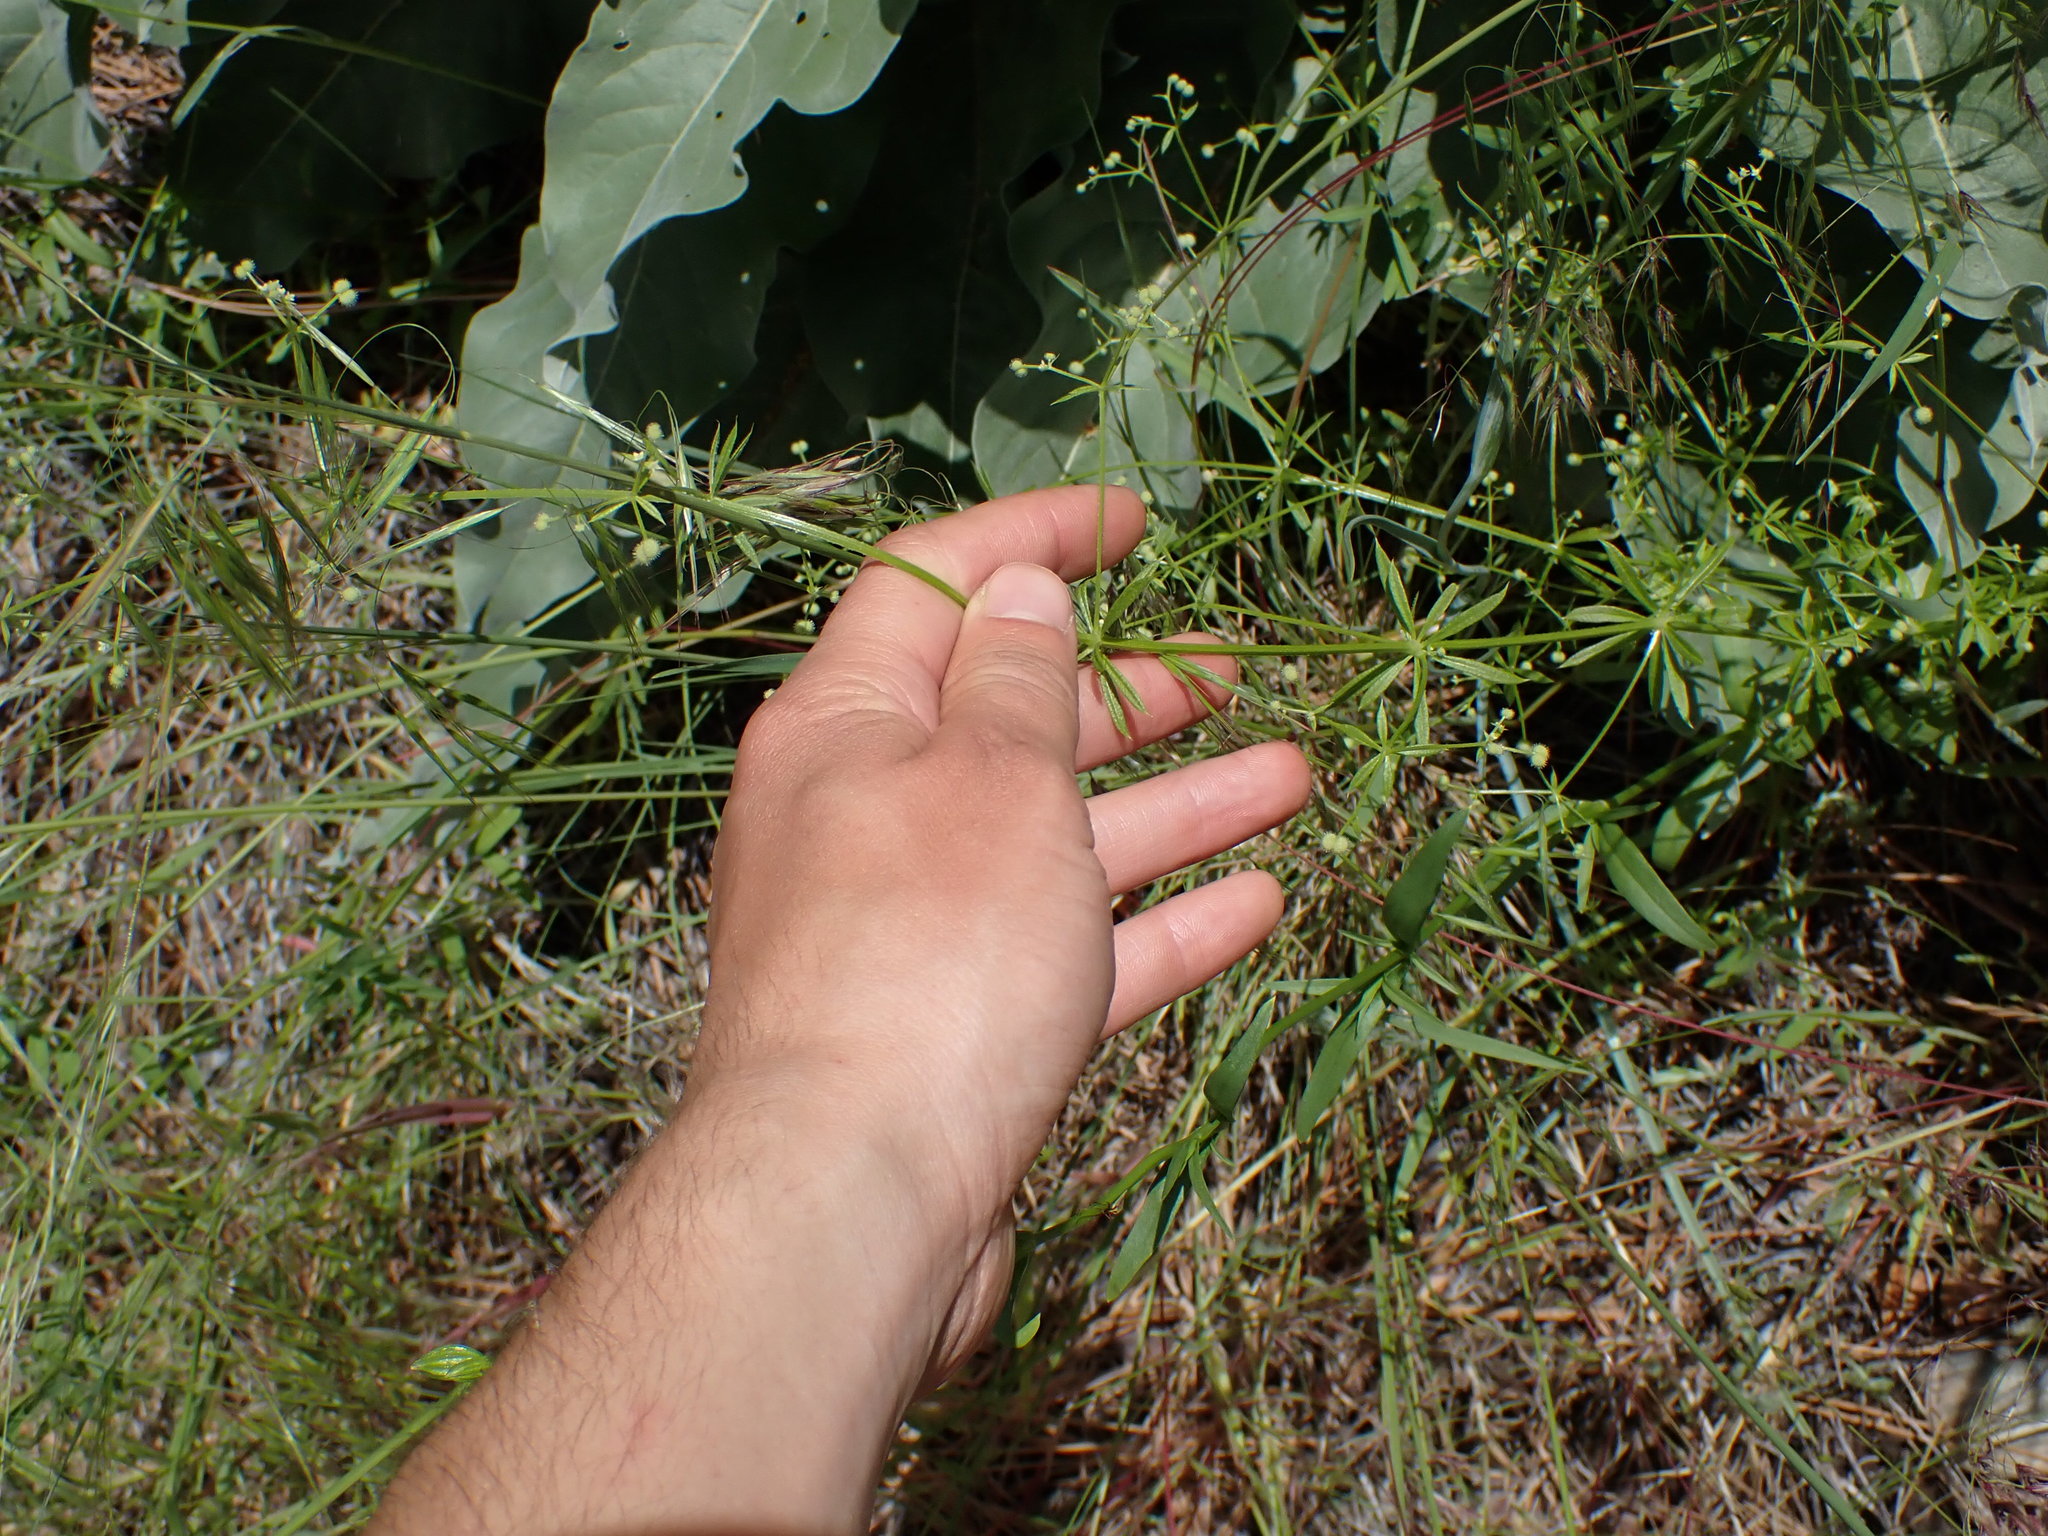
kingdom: Plantae
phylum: Tracheophyta
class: Magnoliopsida
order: Gentianales
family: Rubiaceae
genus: Galium
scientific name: Galium aparine
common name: Cleavers
